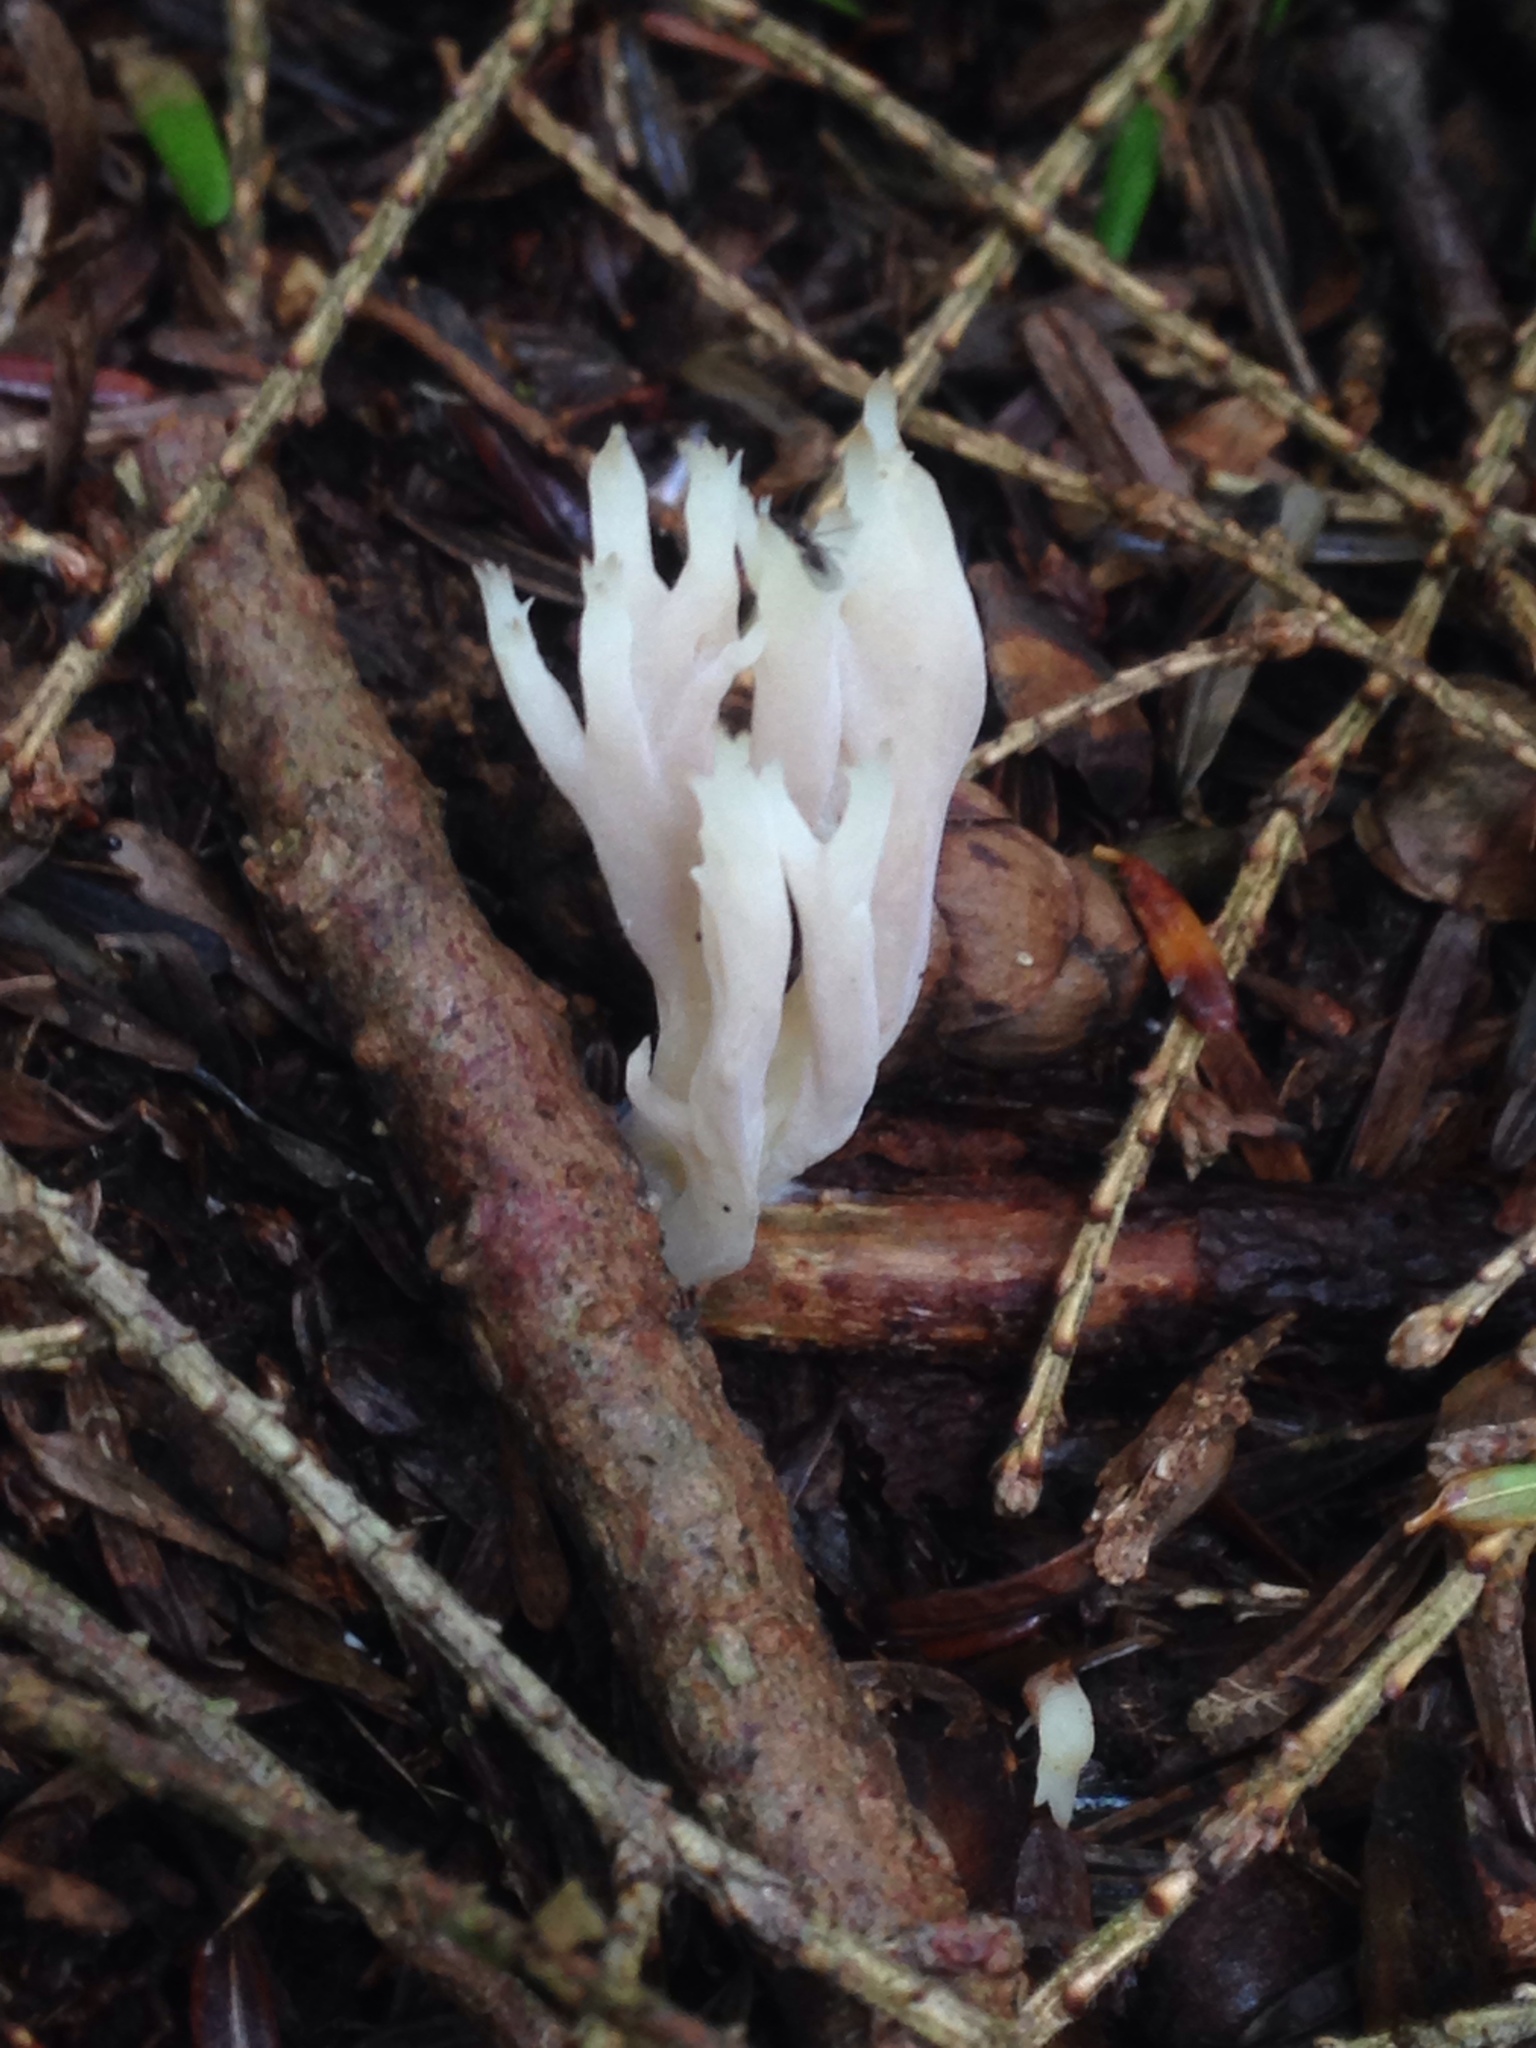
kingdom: Fungi
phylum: Basidiomycota
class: Agaricomycetes
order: Cantharellales
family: Hydnaceae
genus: Clavulina
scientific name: Clavulina coralloides
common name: Crested coral
